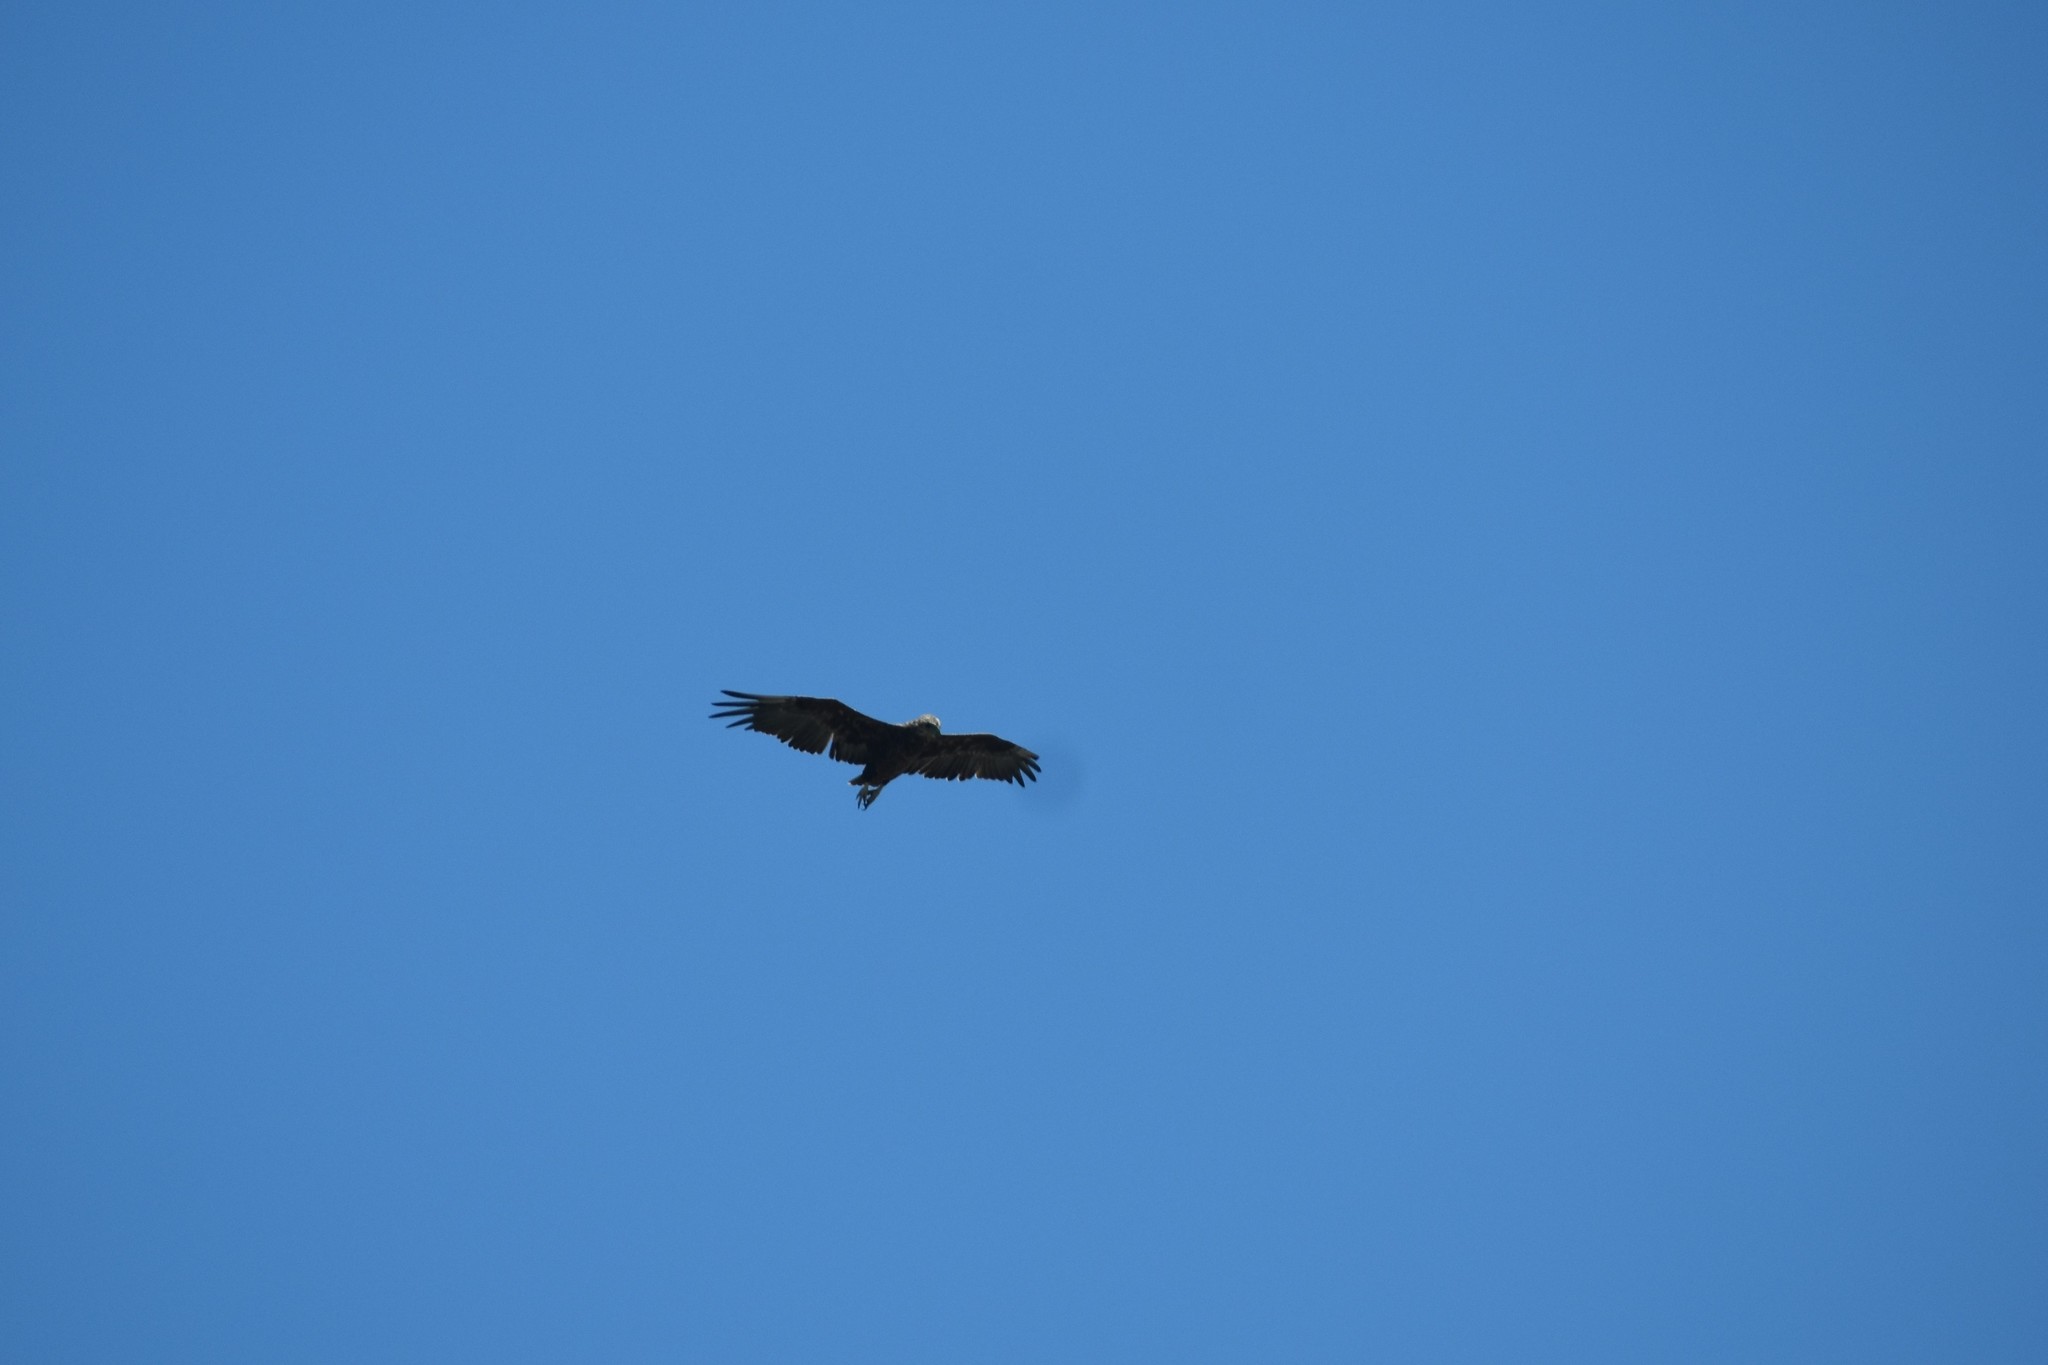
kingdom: Animalia
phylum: Chordata
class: Aves
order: Accipitriformes
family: Accipitridae
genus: Terathopius
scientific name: Terathopius ecaudatus
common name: Bateleur
